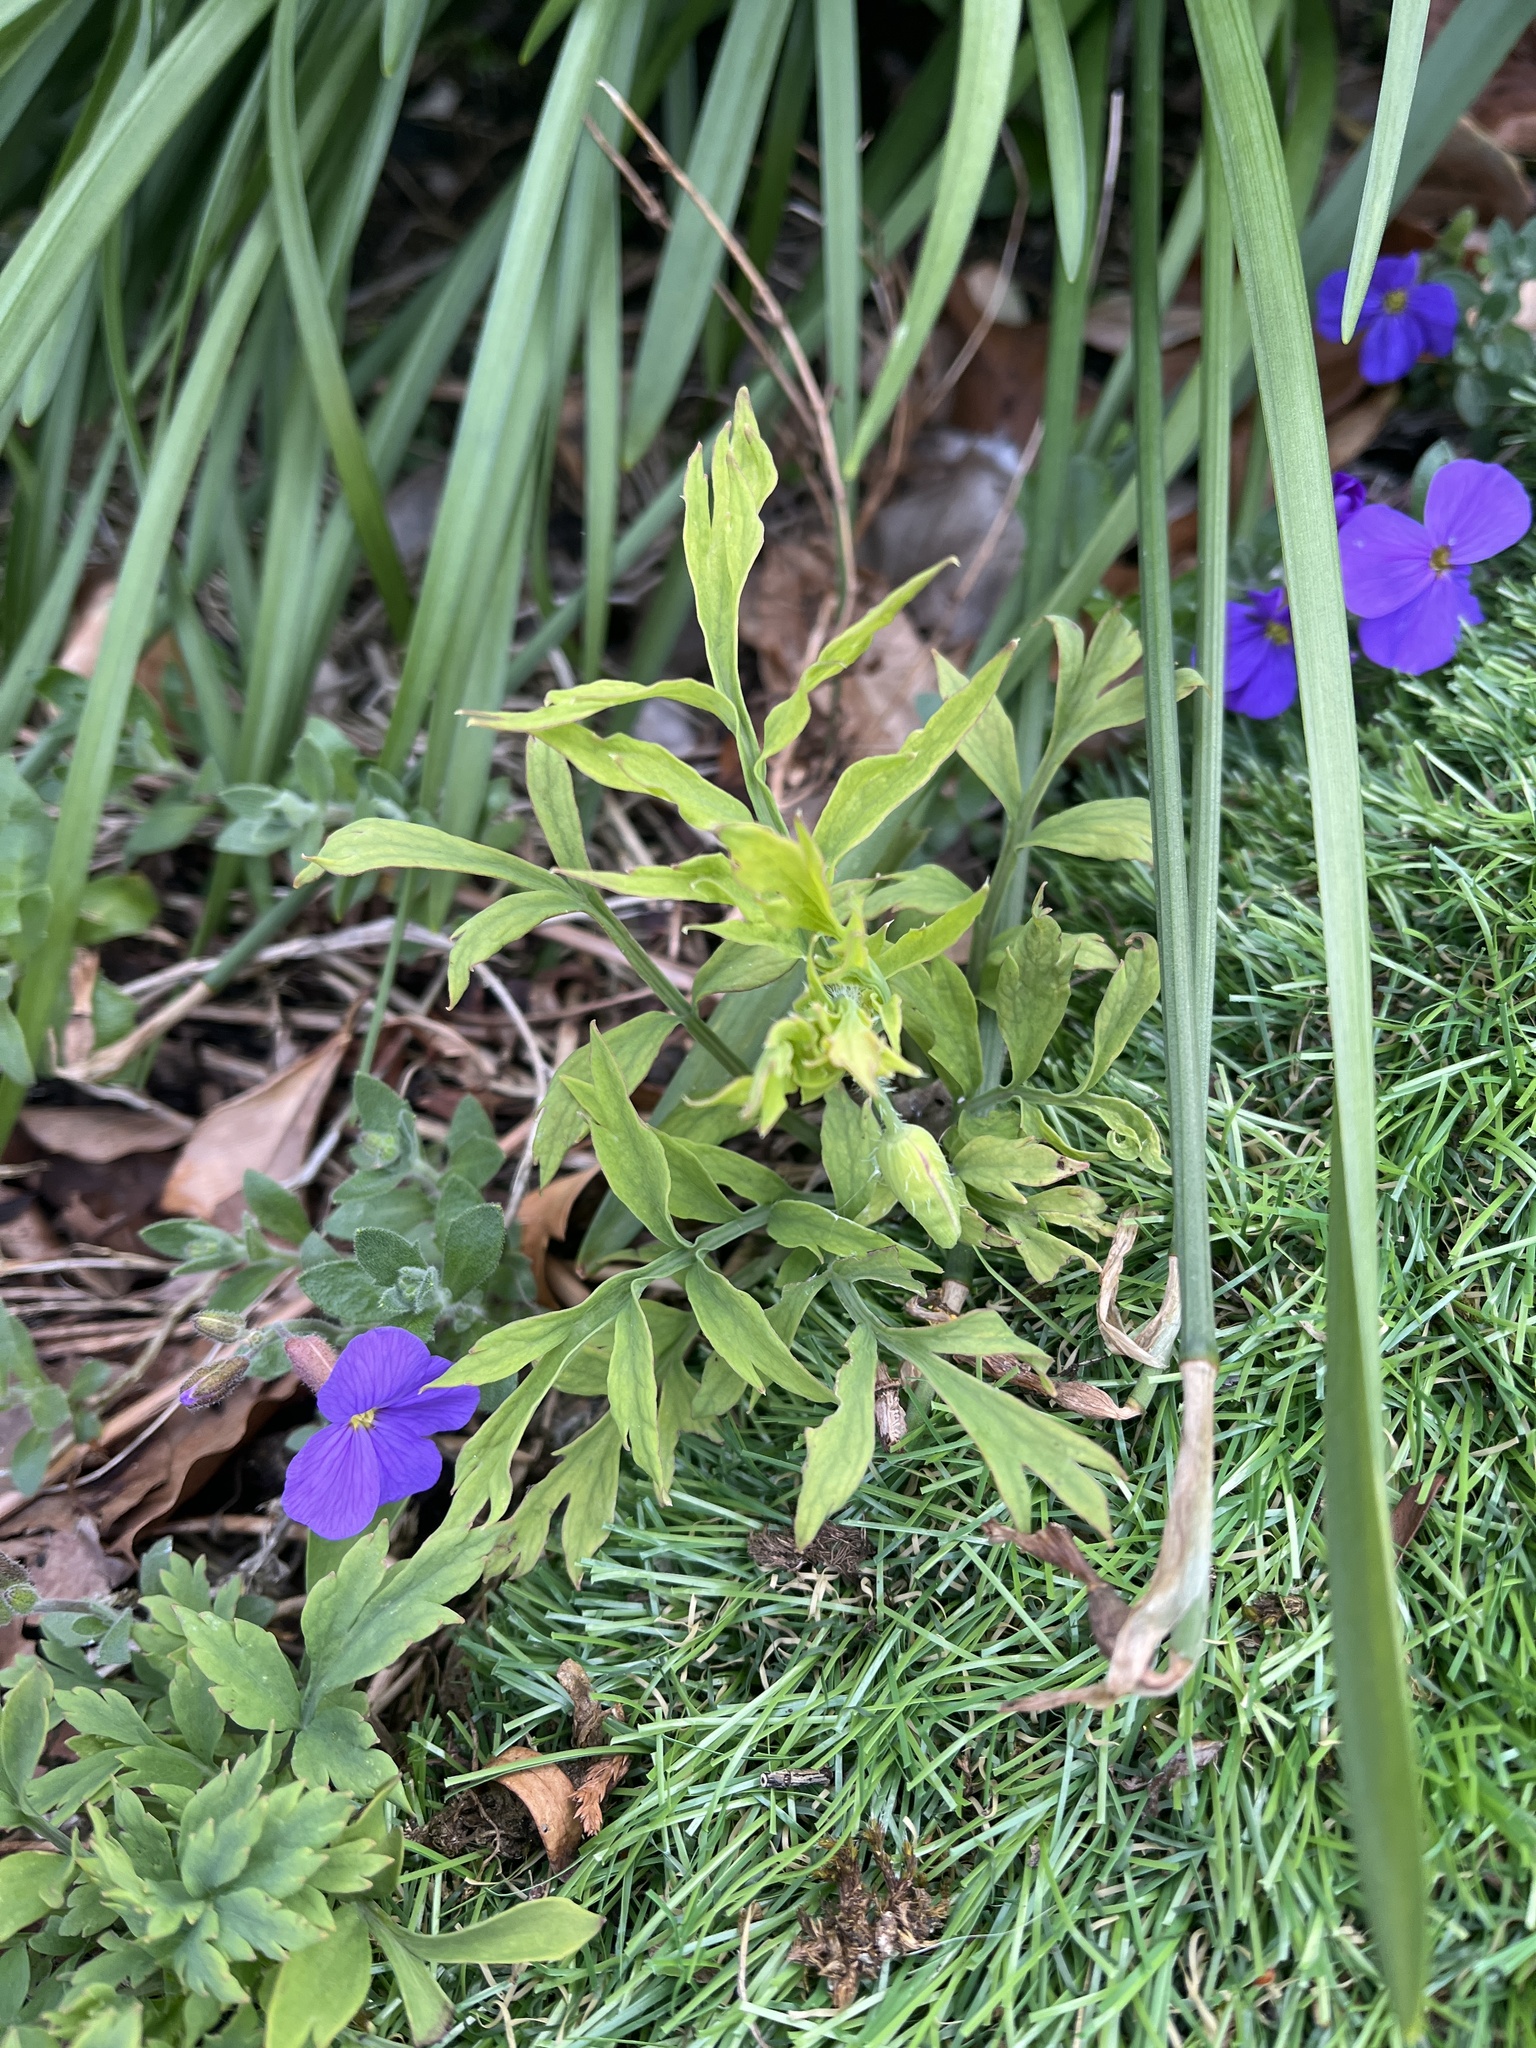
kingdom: Plantae
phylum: Tracheophyta
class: Magnoliopsida
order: Ranunculales
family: Papaveraceae
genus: Papaver
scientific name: Papaver cambricum
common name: Poppy
